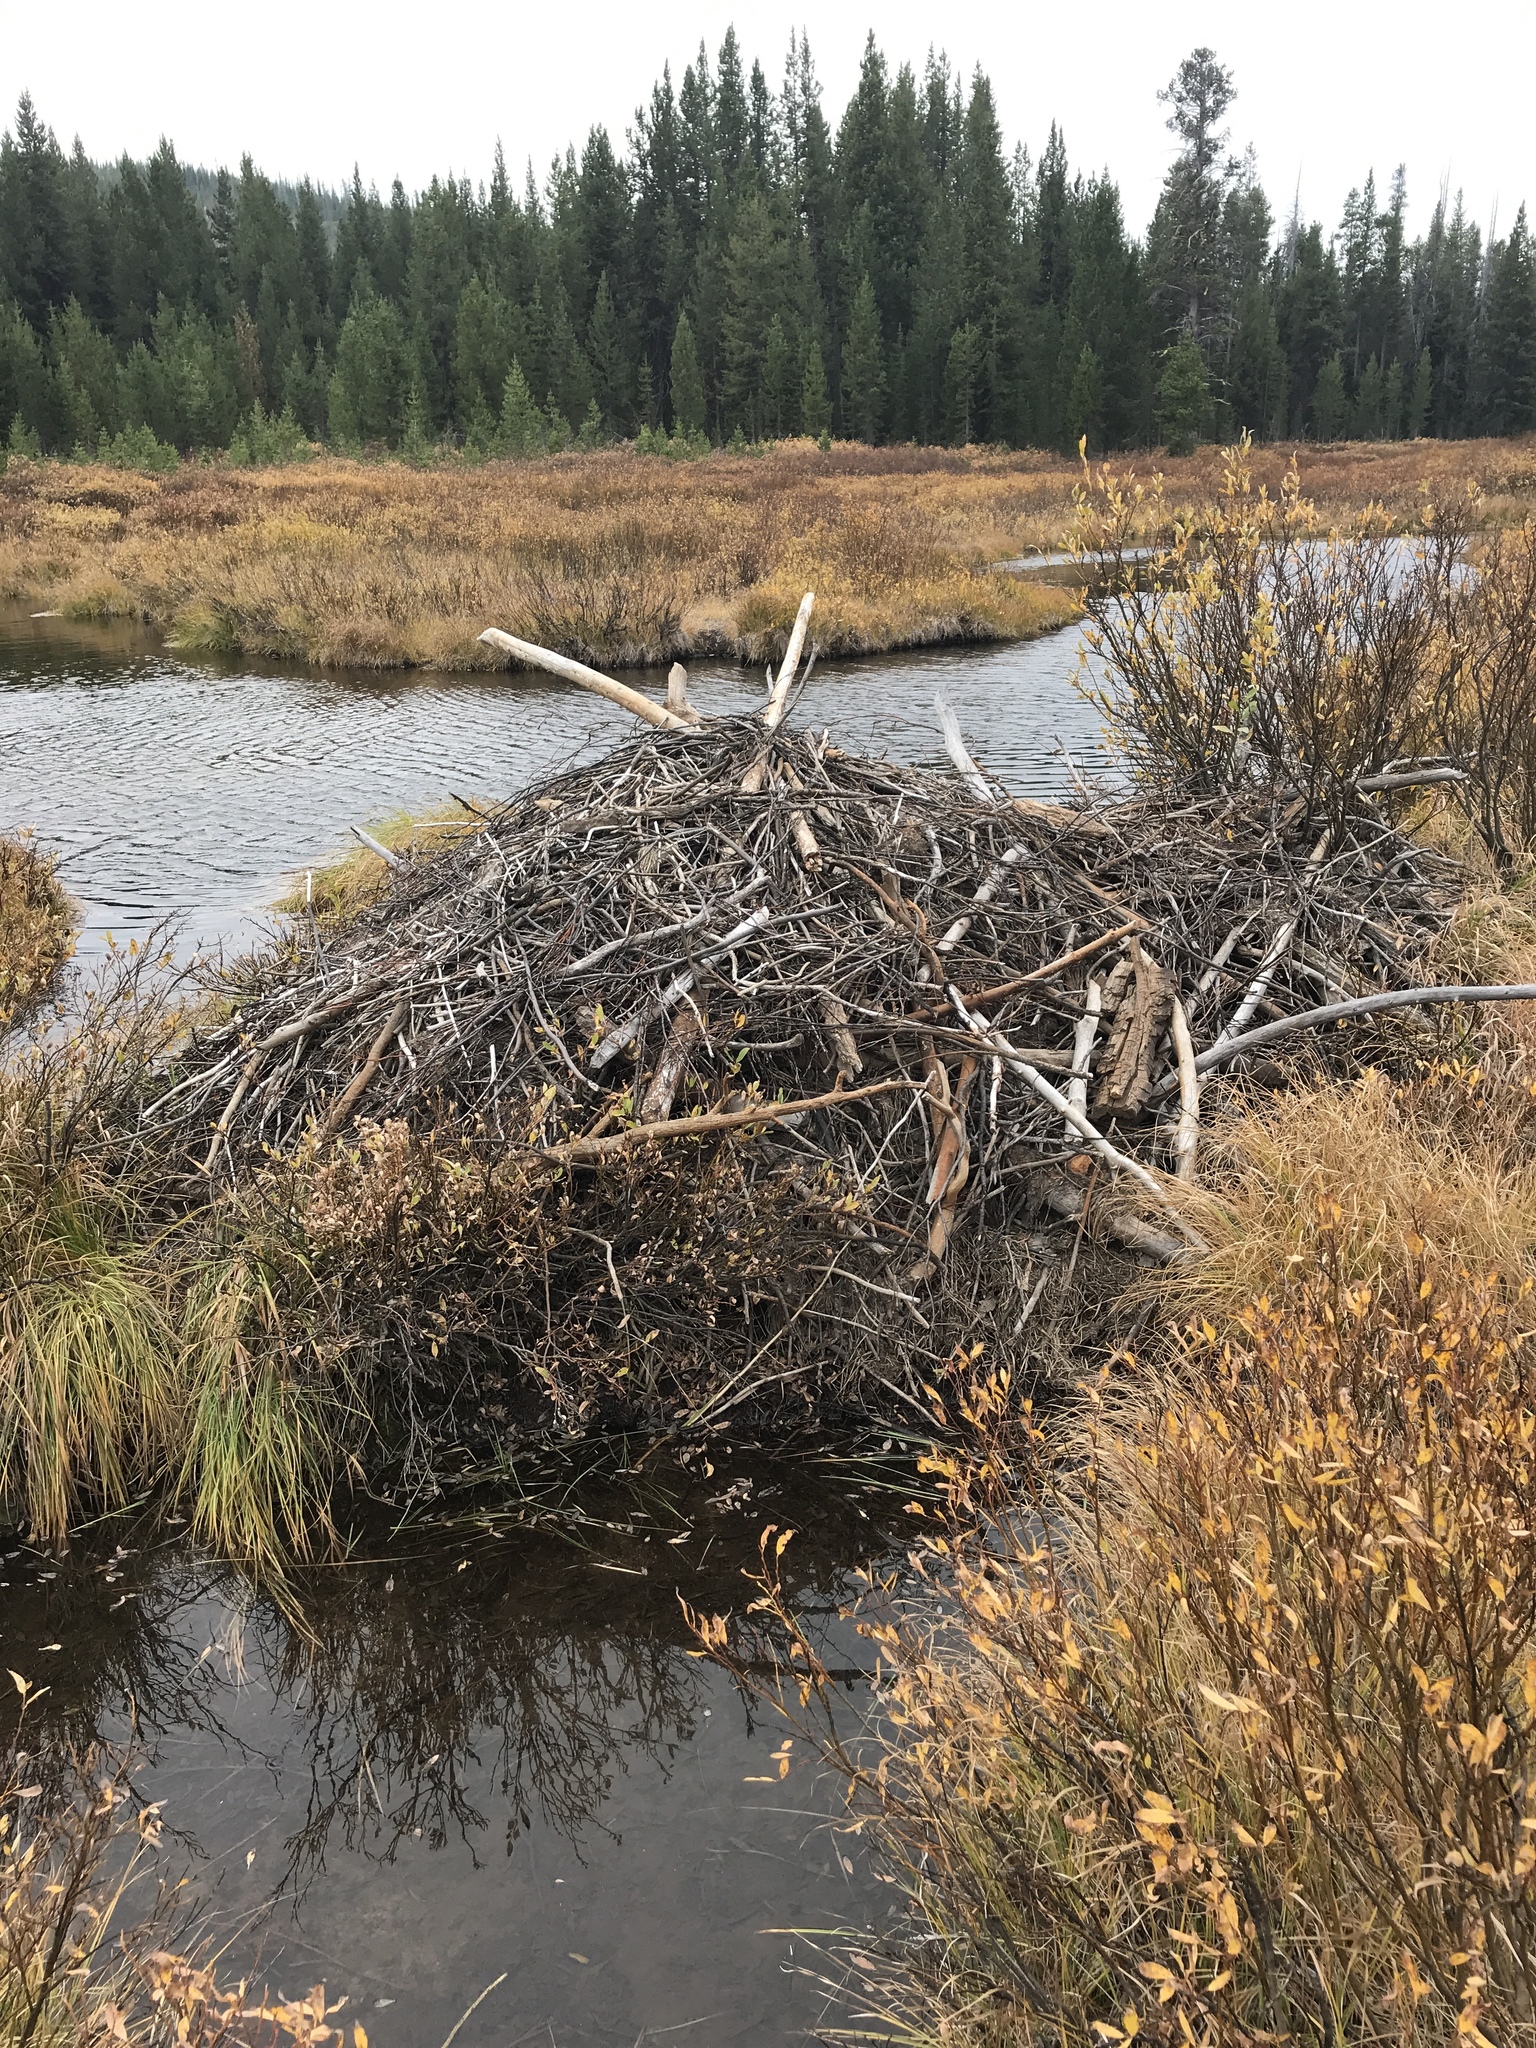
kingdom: Animalia
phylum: Chordata
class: Mammalia
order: Rodentia
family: Castoridae
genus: Castor
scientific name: Castor canadensis
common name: American beaver
